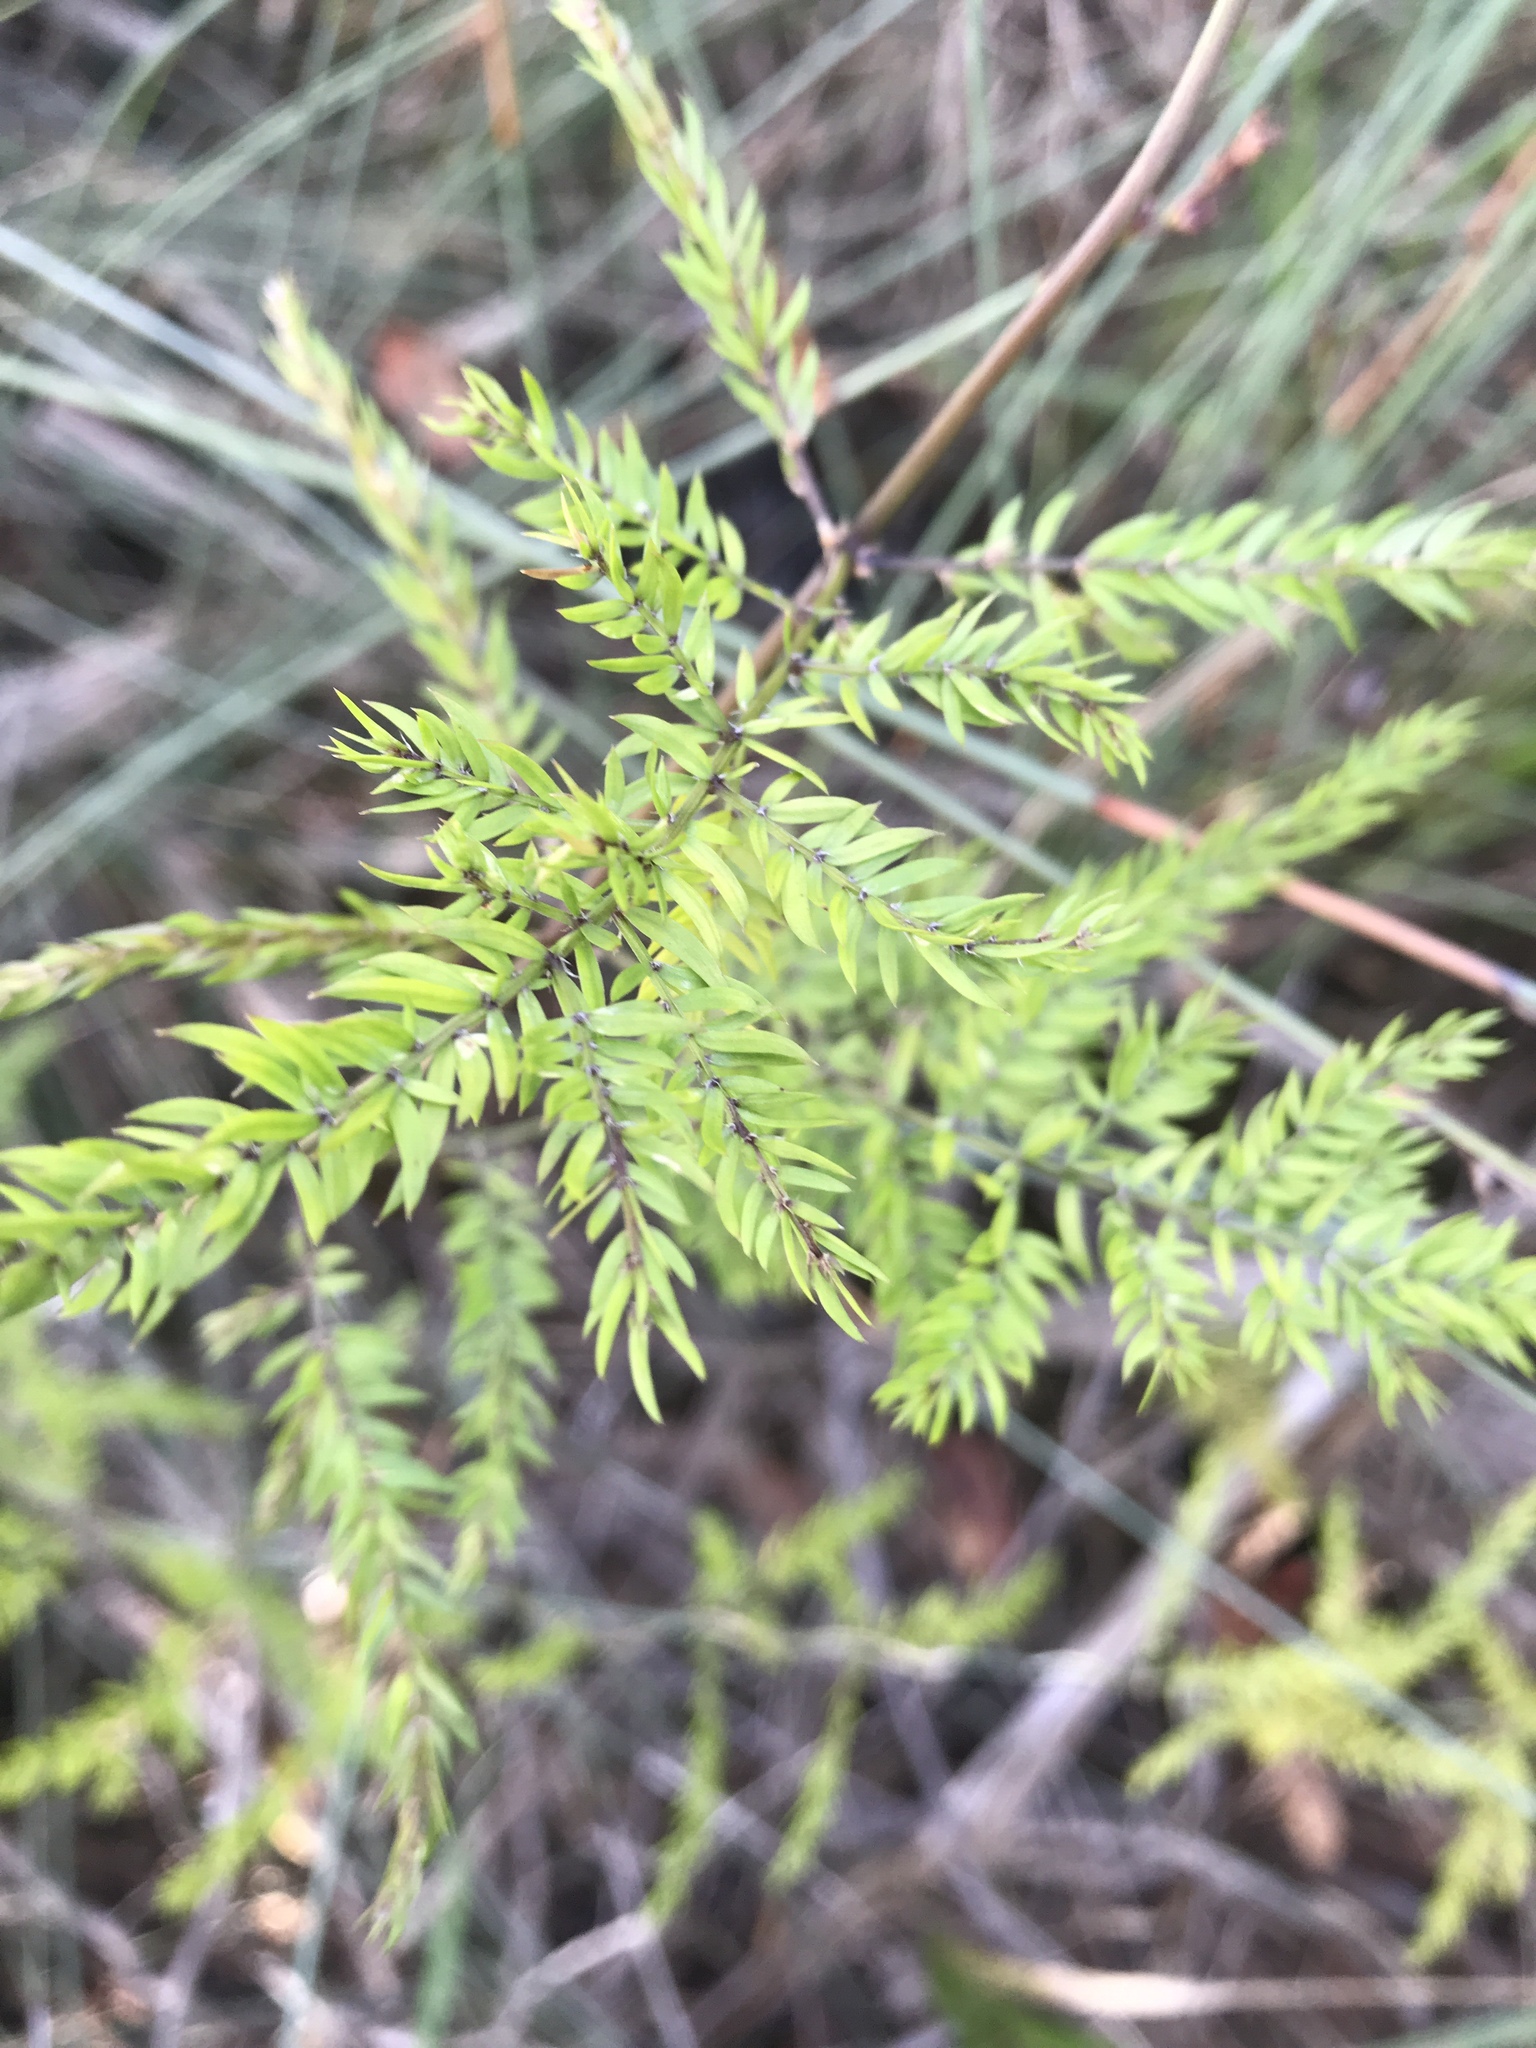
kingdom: Plantae
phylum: Tracheophyta
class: Liliopsida
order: Asparagales
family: Asparagaceae
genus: Asparagus
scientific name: Asparagus scandens
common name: Asparagus-fern
